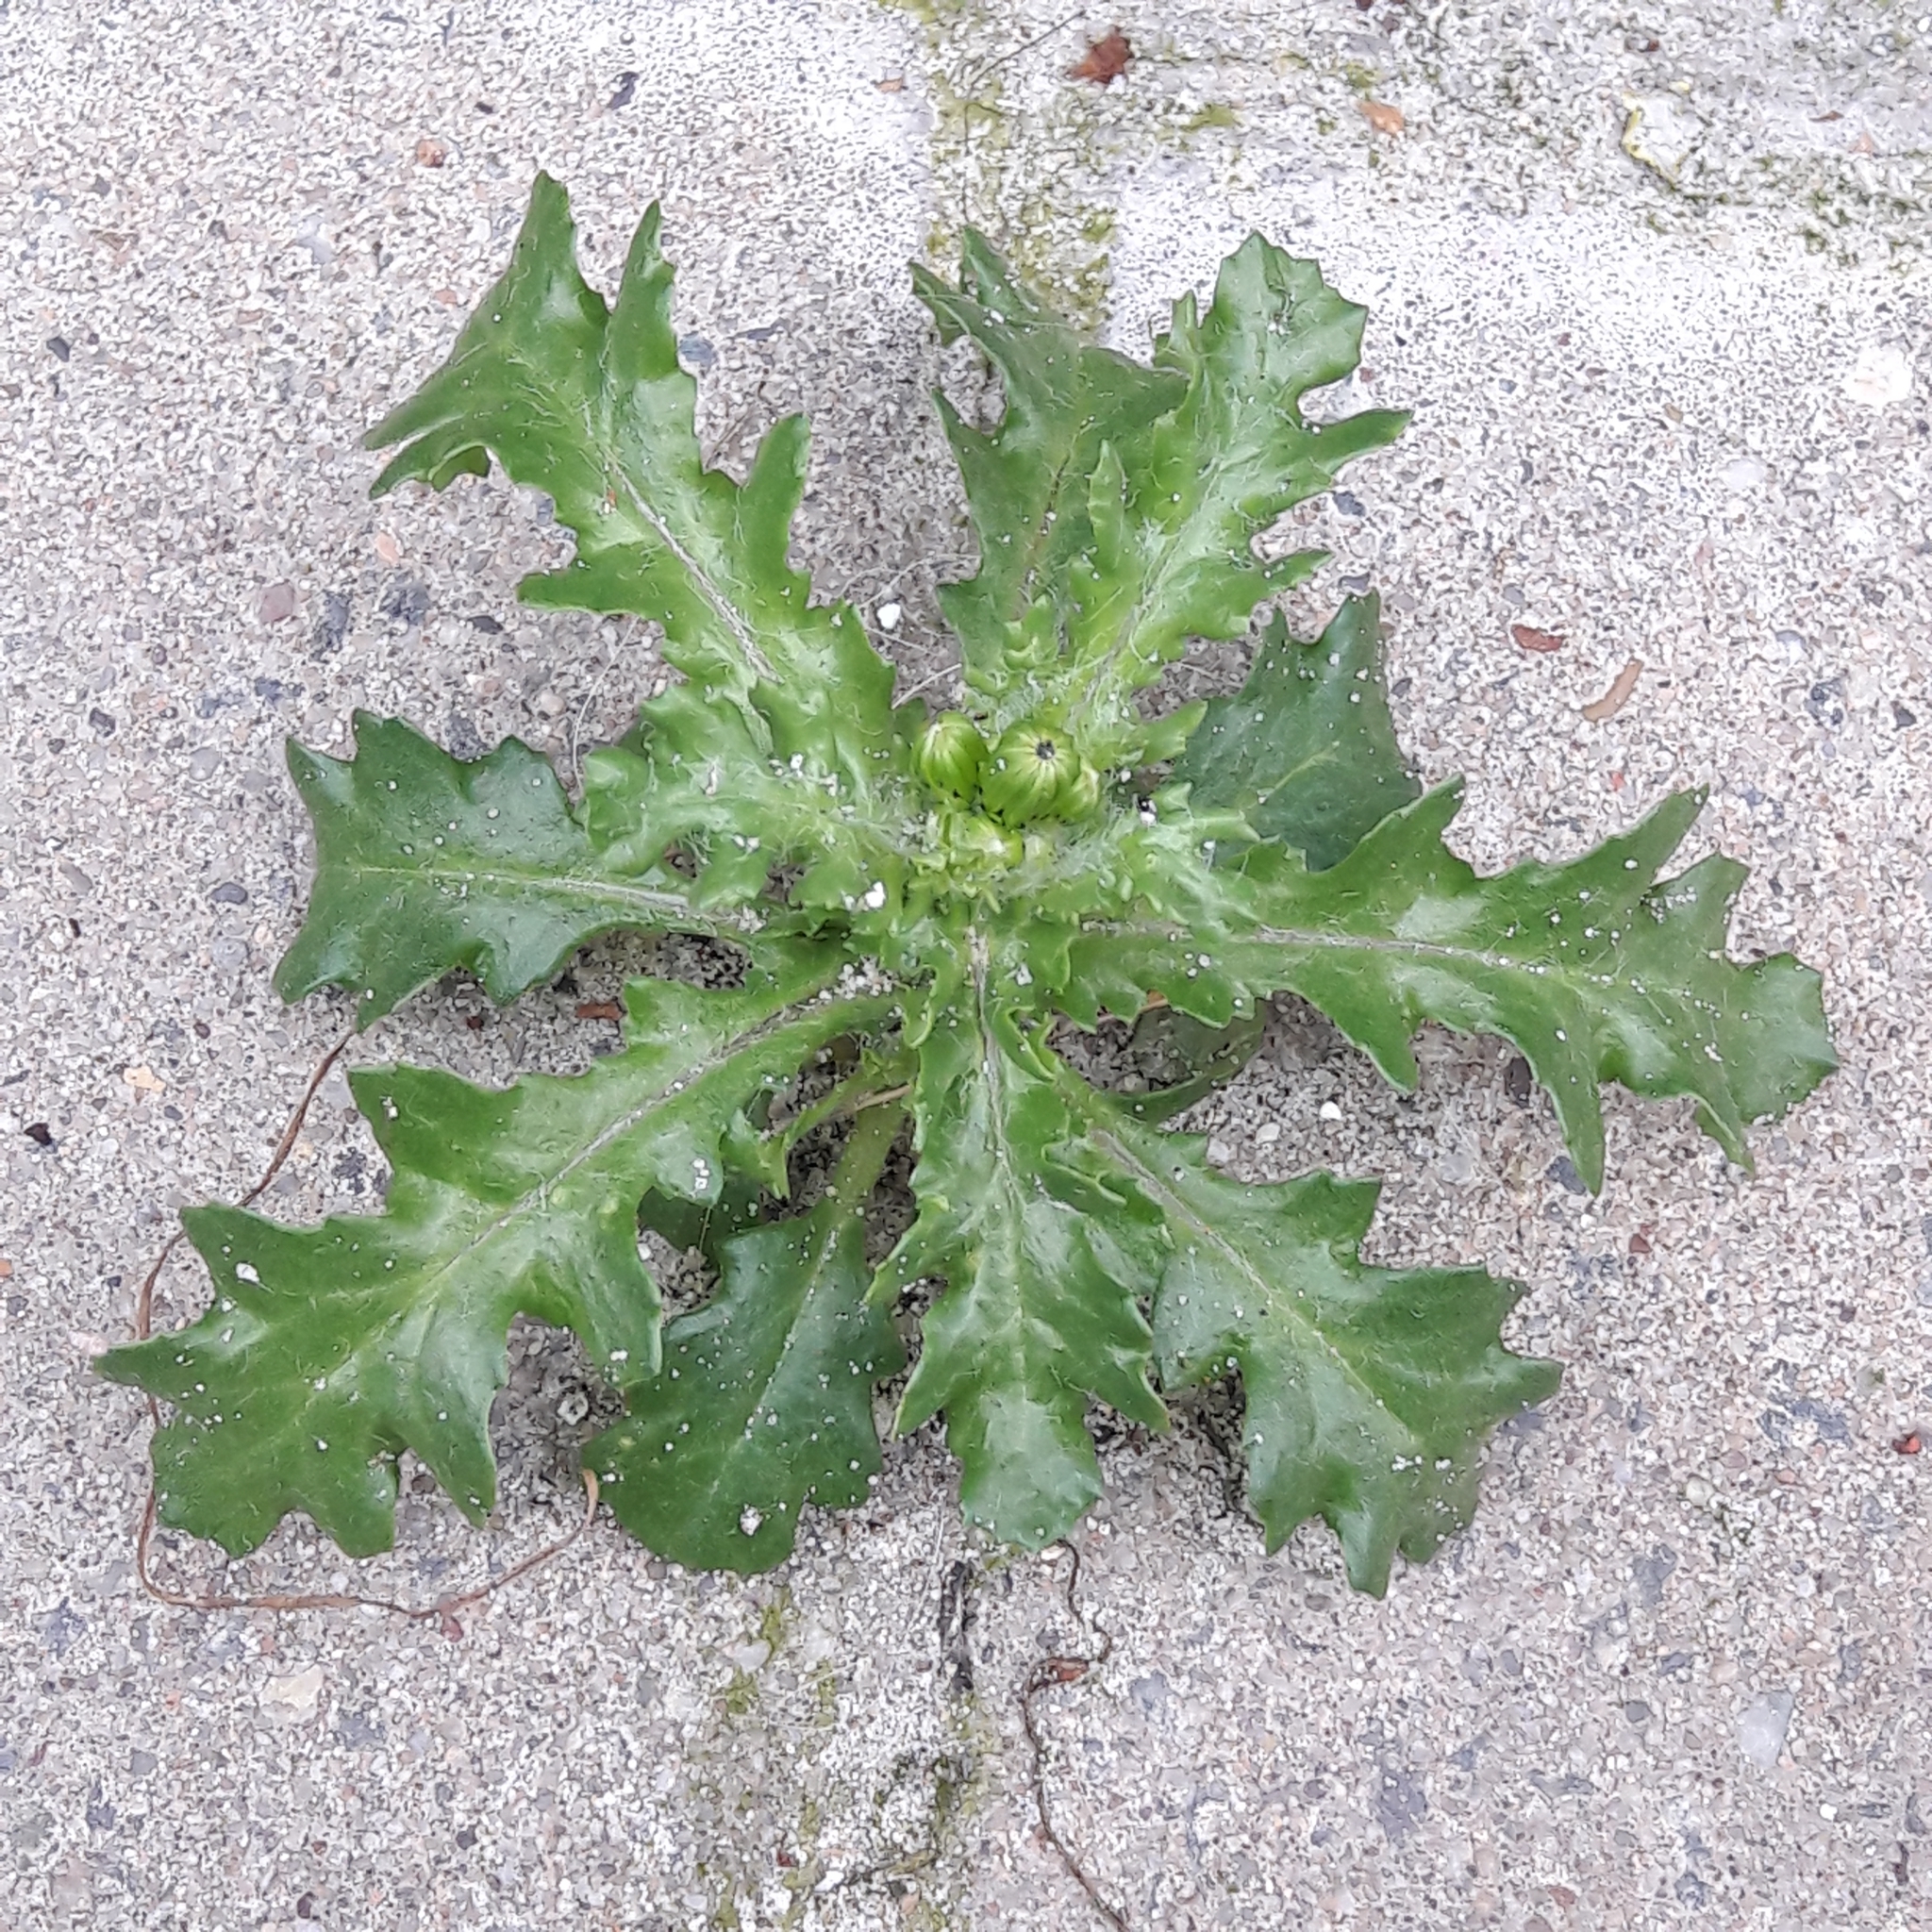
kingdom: Plantae
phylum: Tracheophyta
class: Magnoliopsida
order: Asterales
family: Asteraceae
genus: Senecio
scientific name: Senecio vulgaris
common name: Old-man-in-the-spring
